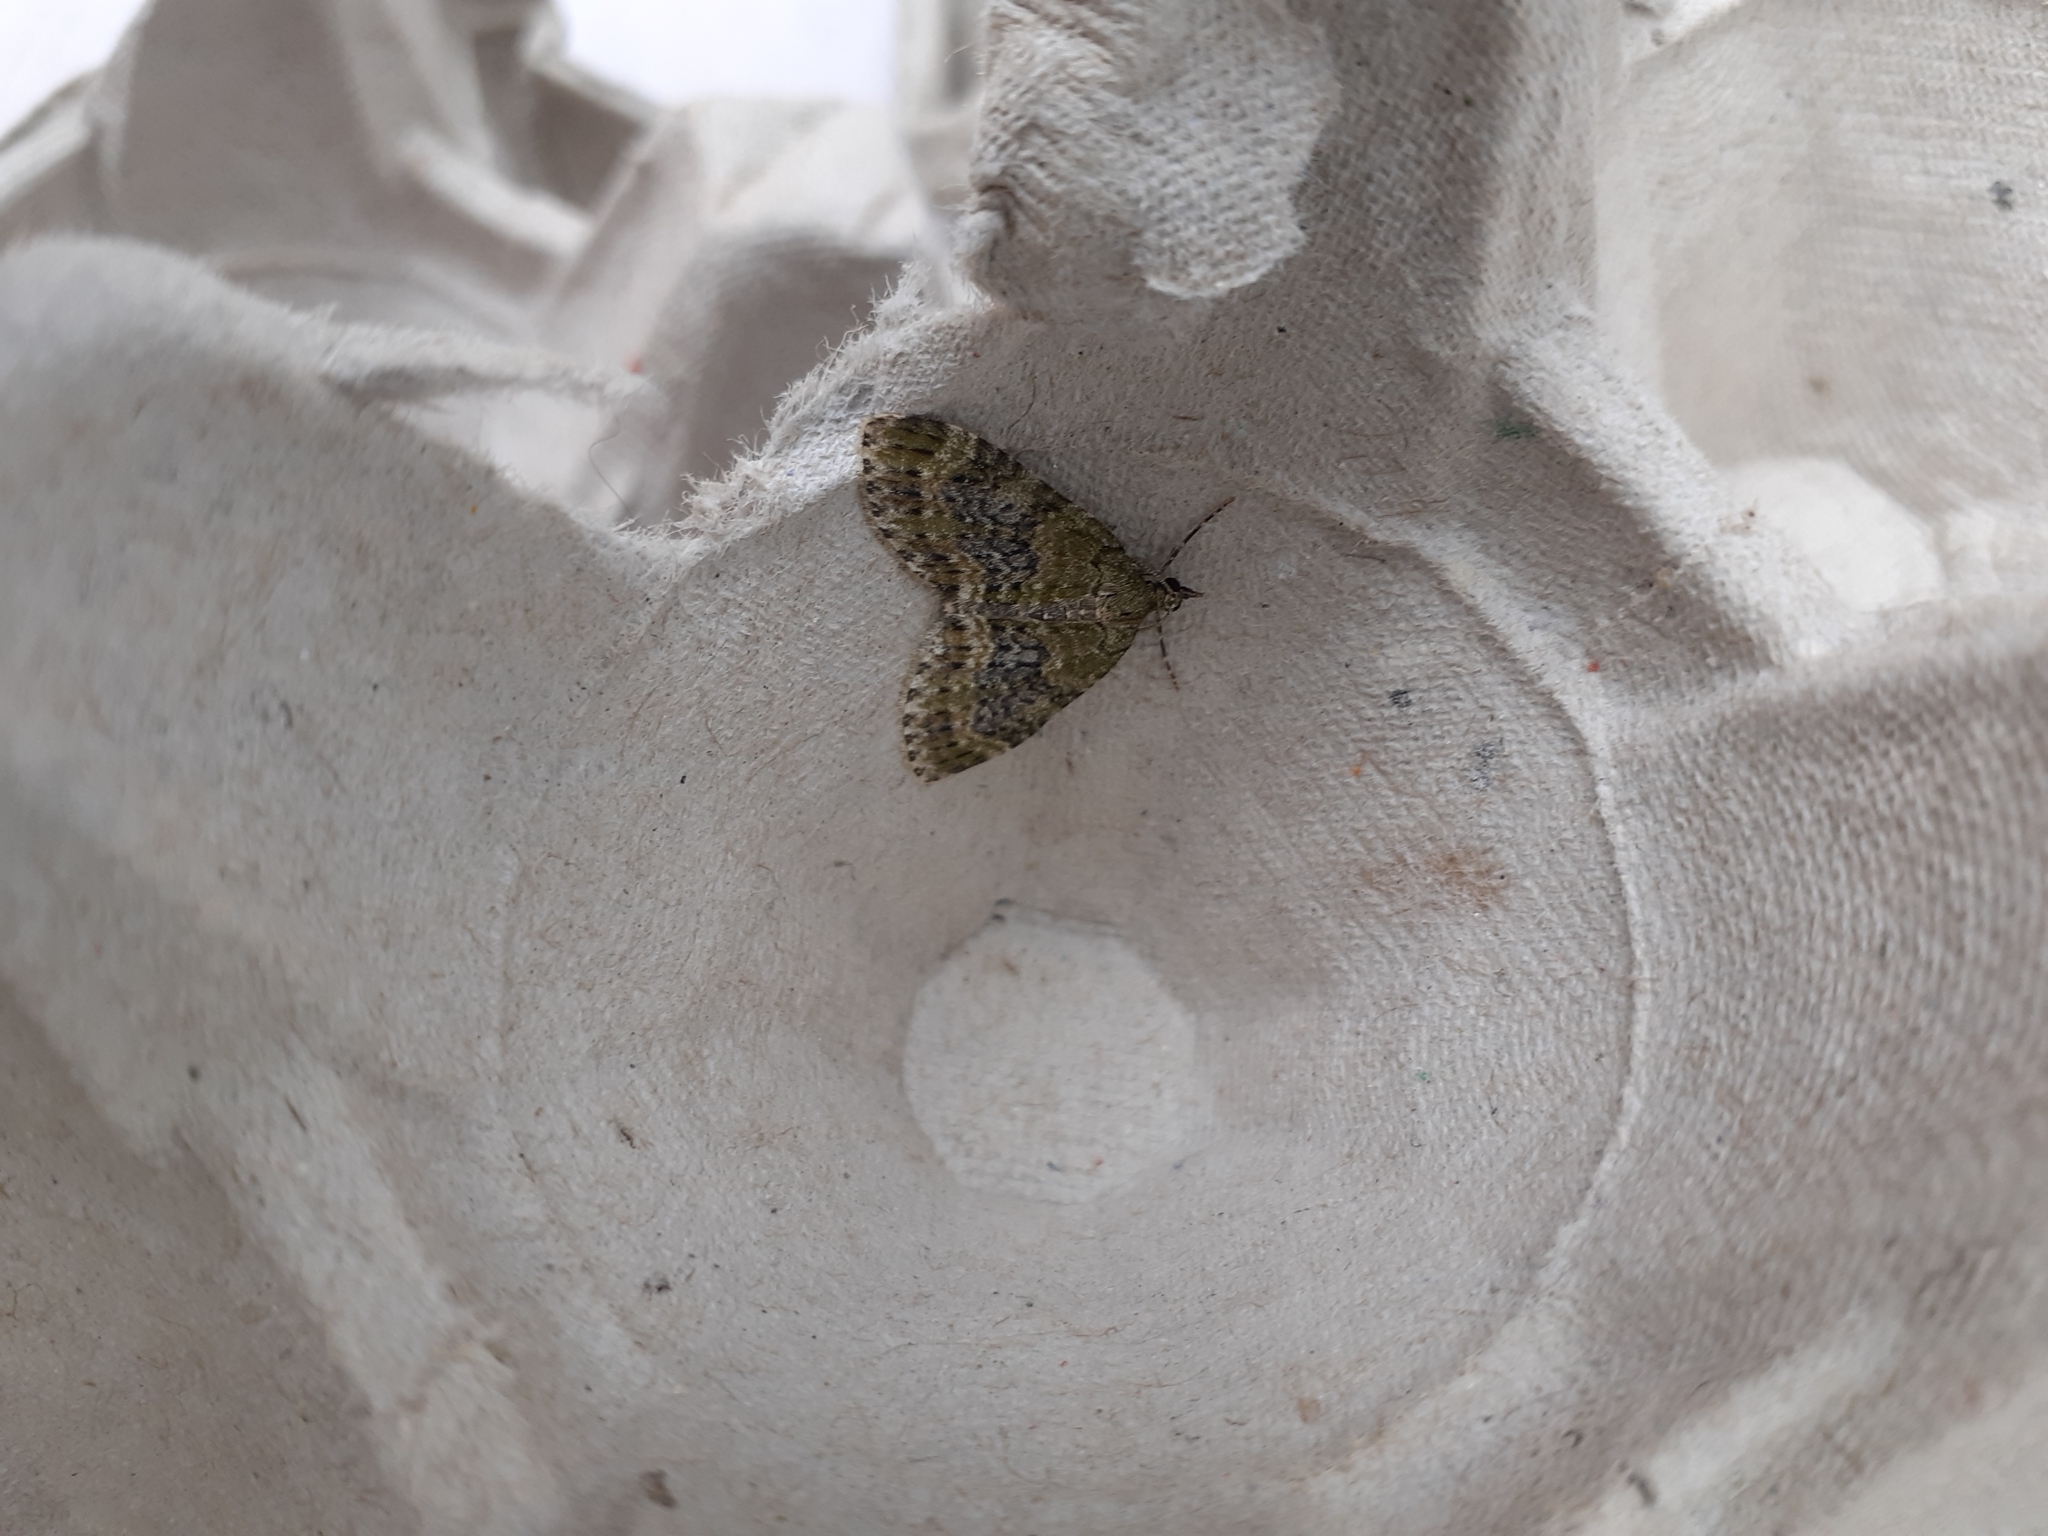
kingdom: Animalia
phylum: Arthropoda
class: Insecta
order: Lepidoptera
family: Geometridae
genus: Acasis
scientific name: Acasis viretata
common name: Yellow-barred brindle
